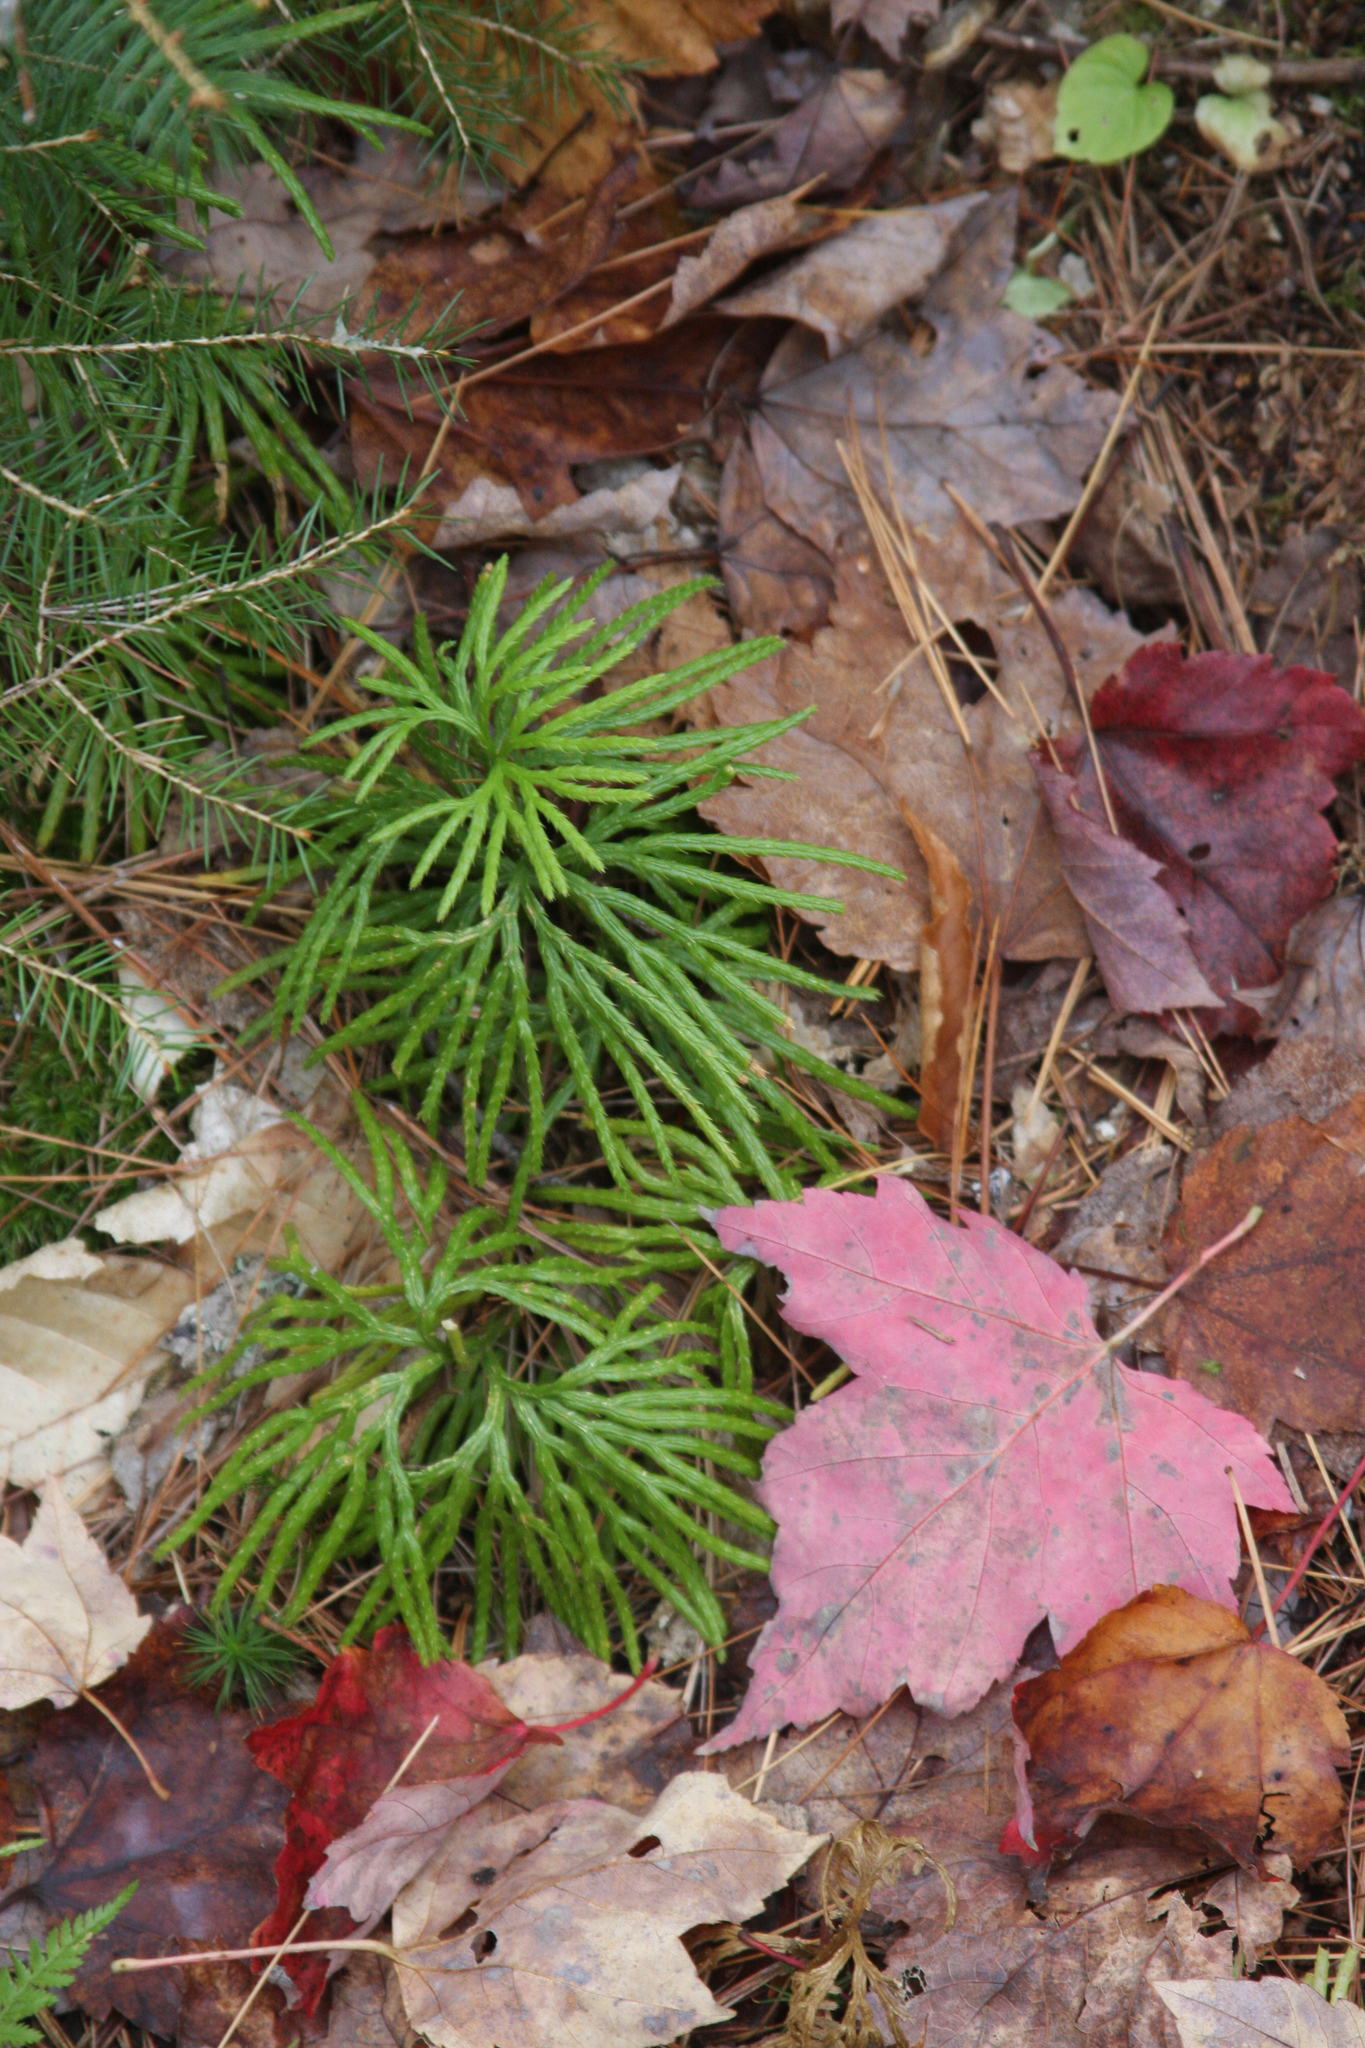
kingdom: Plantae
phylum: Tracheophyta
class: Lycopodiopsida
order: Lycopodiales
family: Lycopodiaceae
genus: Diphasiastrum
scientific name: Diphasiastrum digitatum
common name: Southern running-pine
